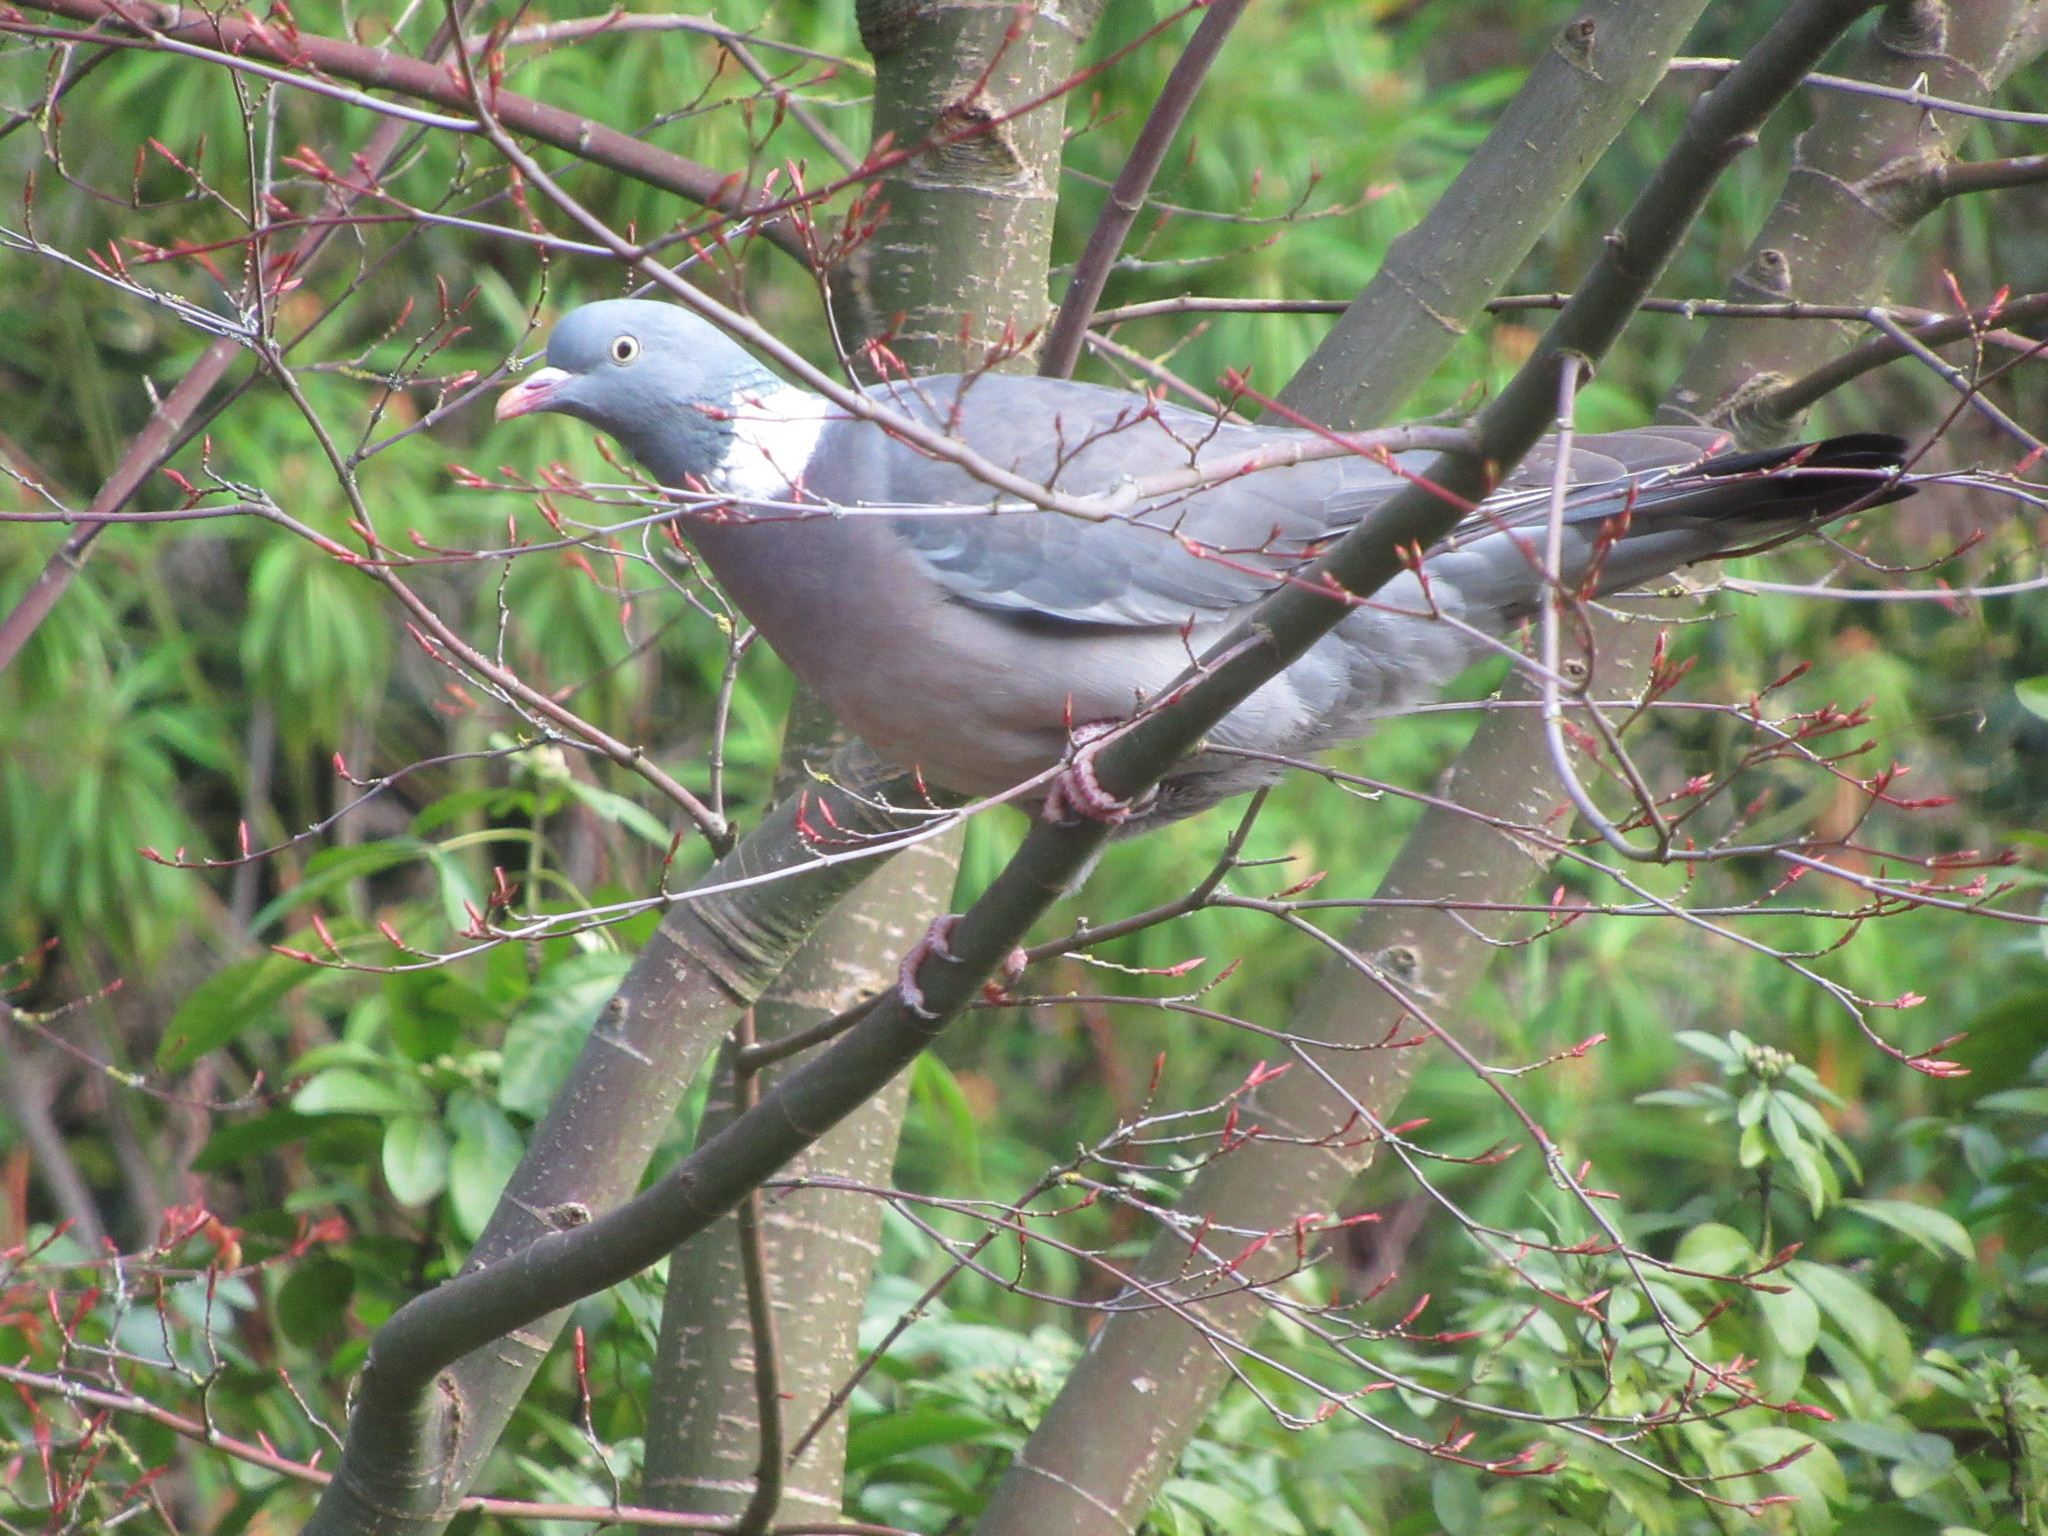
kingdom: Animalia
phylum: Chordata
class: Aves
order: Columbiformes
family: Columbidae
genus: Columba
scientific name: Columba palumbus
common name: Common wood pigeon
